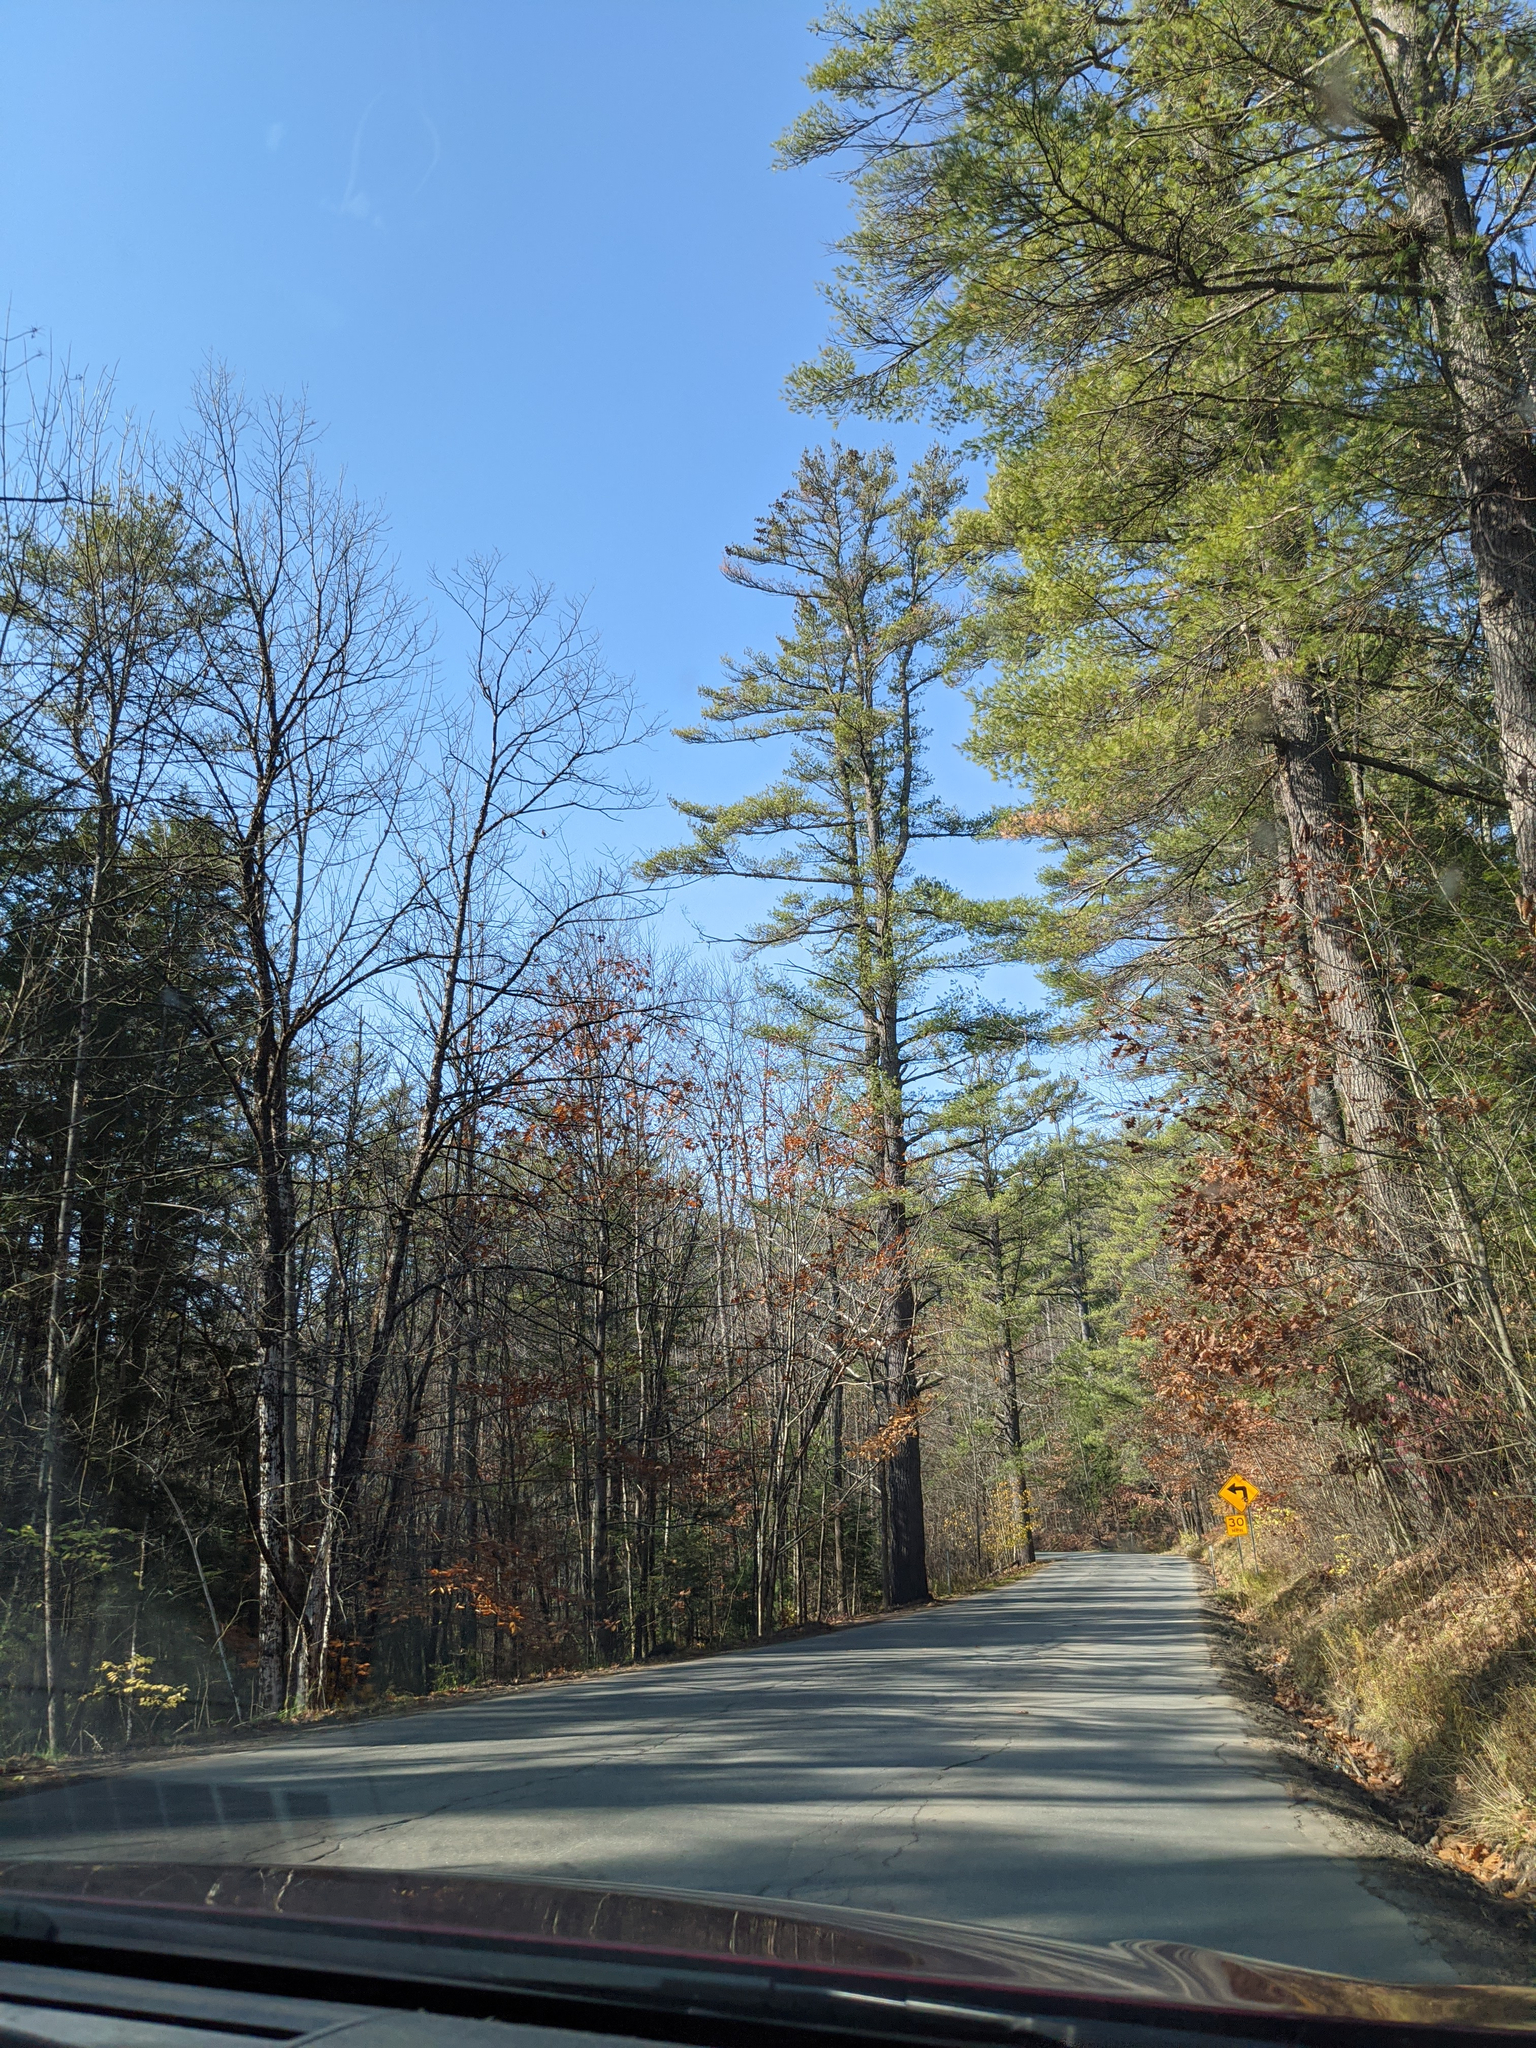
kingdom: Plantae
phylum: Tracheophyta
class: Pinopsida
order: Pinales
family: Pinaceae
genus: Pinus
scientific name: Pinus strobus
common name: Weymouth pine
